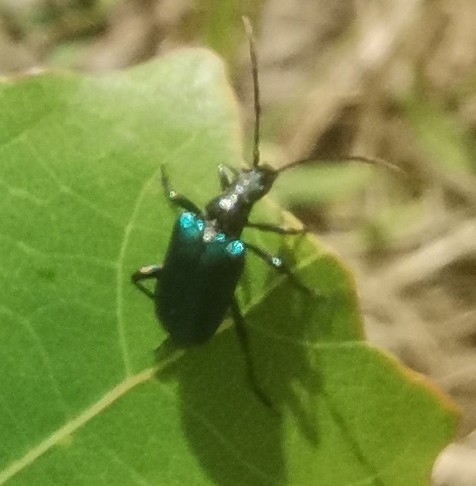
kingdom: Animalia
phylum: Arthropoda
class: Insecta
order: Coleoptera
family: Cerambycidae
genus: Gaurotes
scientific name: Gaurotes virginea
